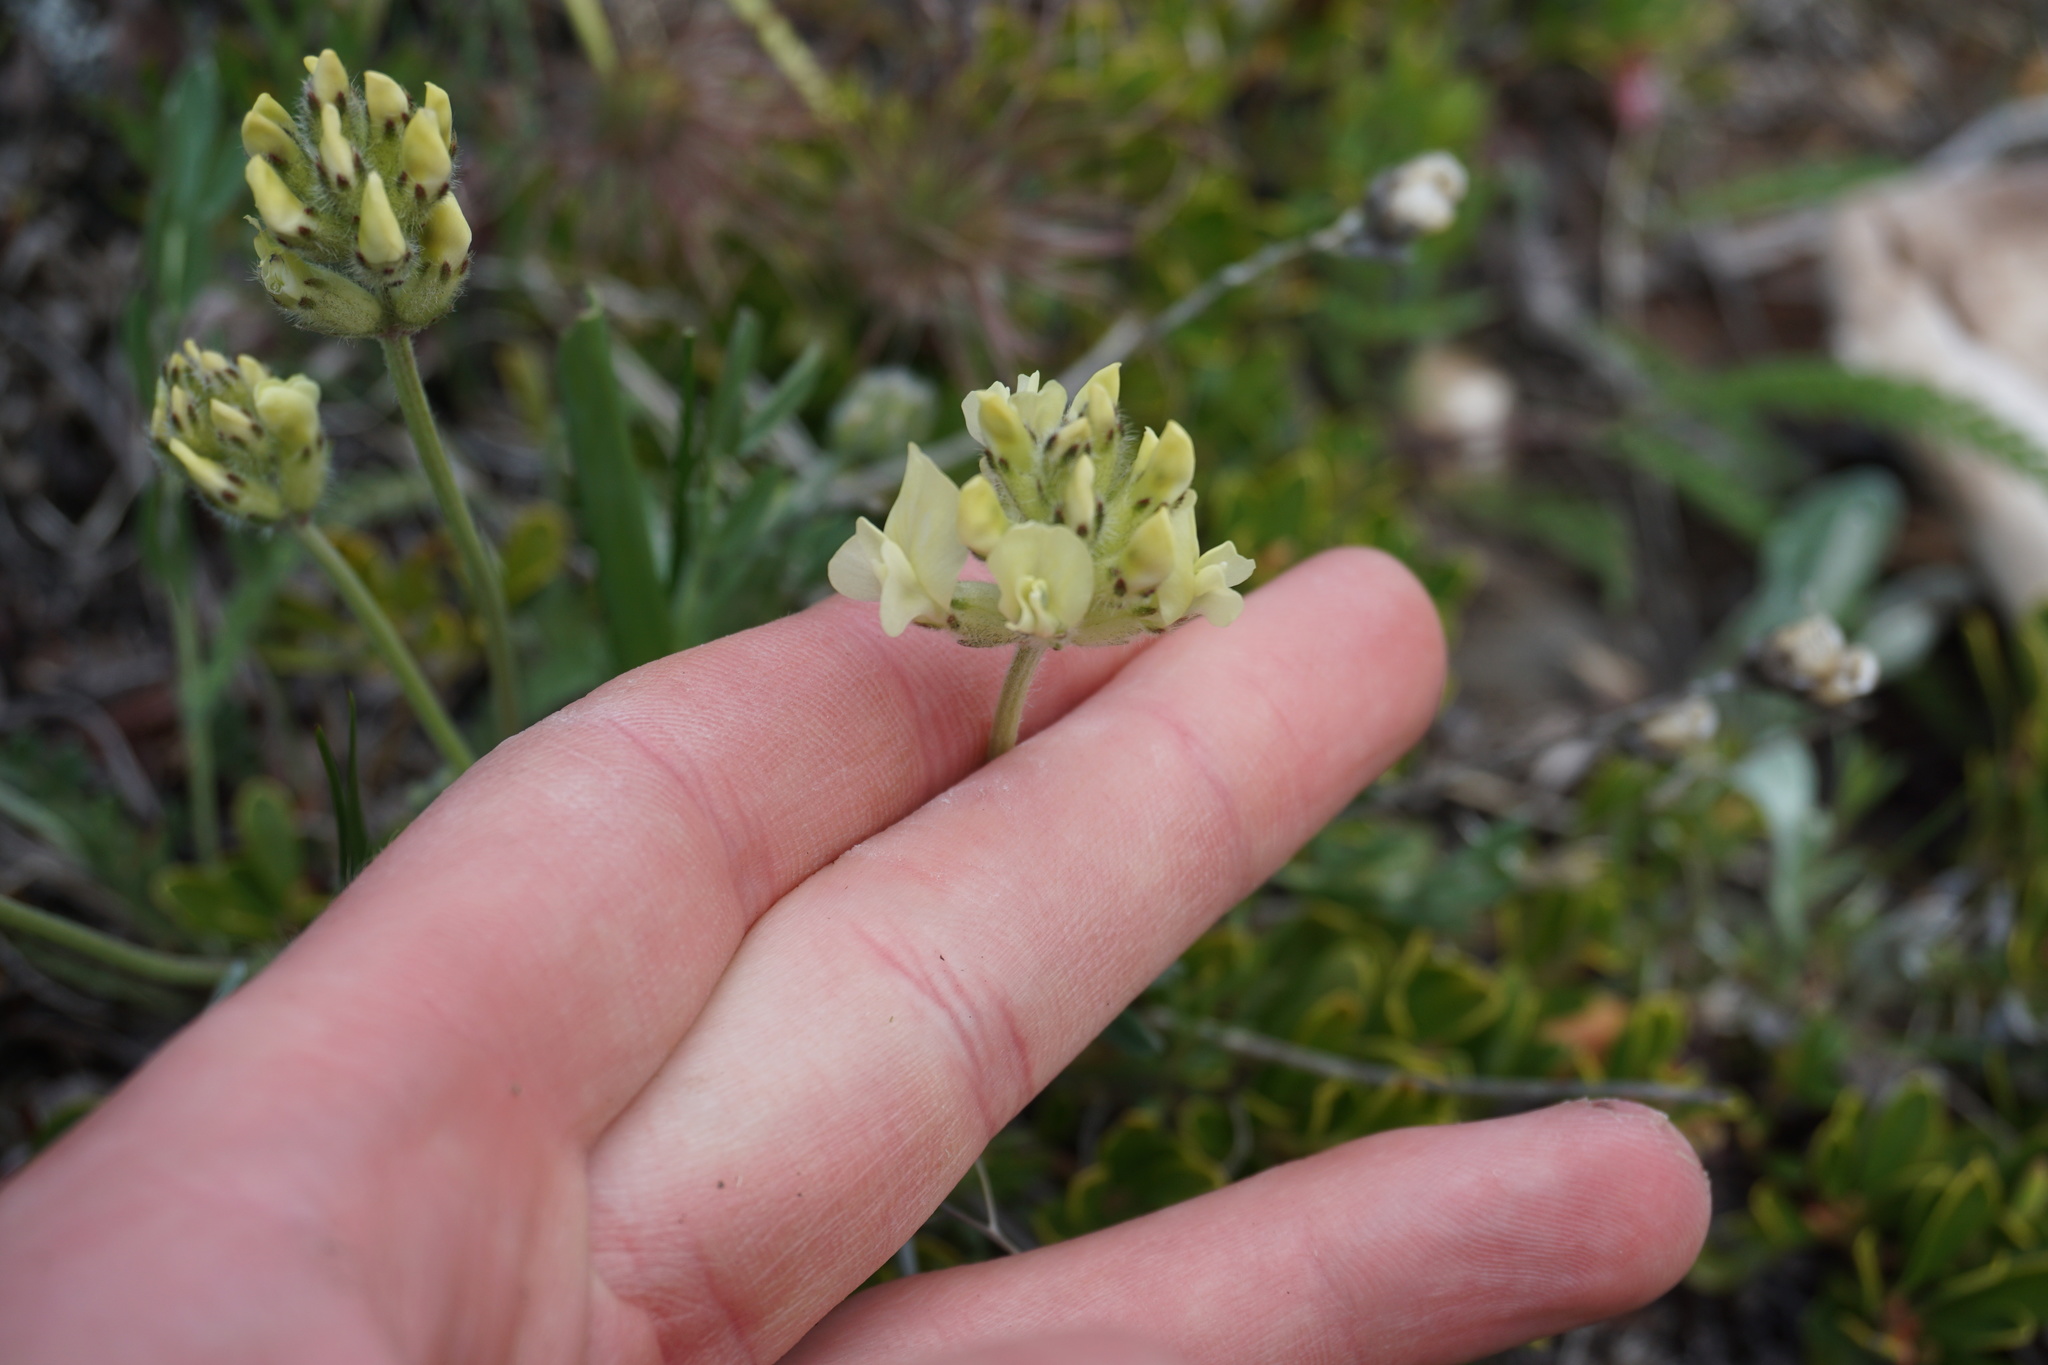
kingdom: Plantae
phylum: Tracheophyta
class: Magnoliopsida
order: Fabales
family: Fabaceae
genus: Oxytropis
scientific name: Oxytropis sericea
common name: Silky locoweed
